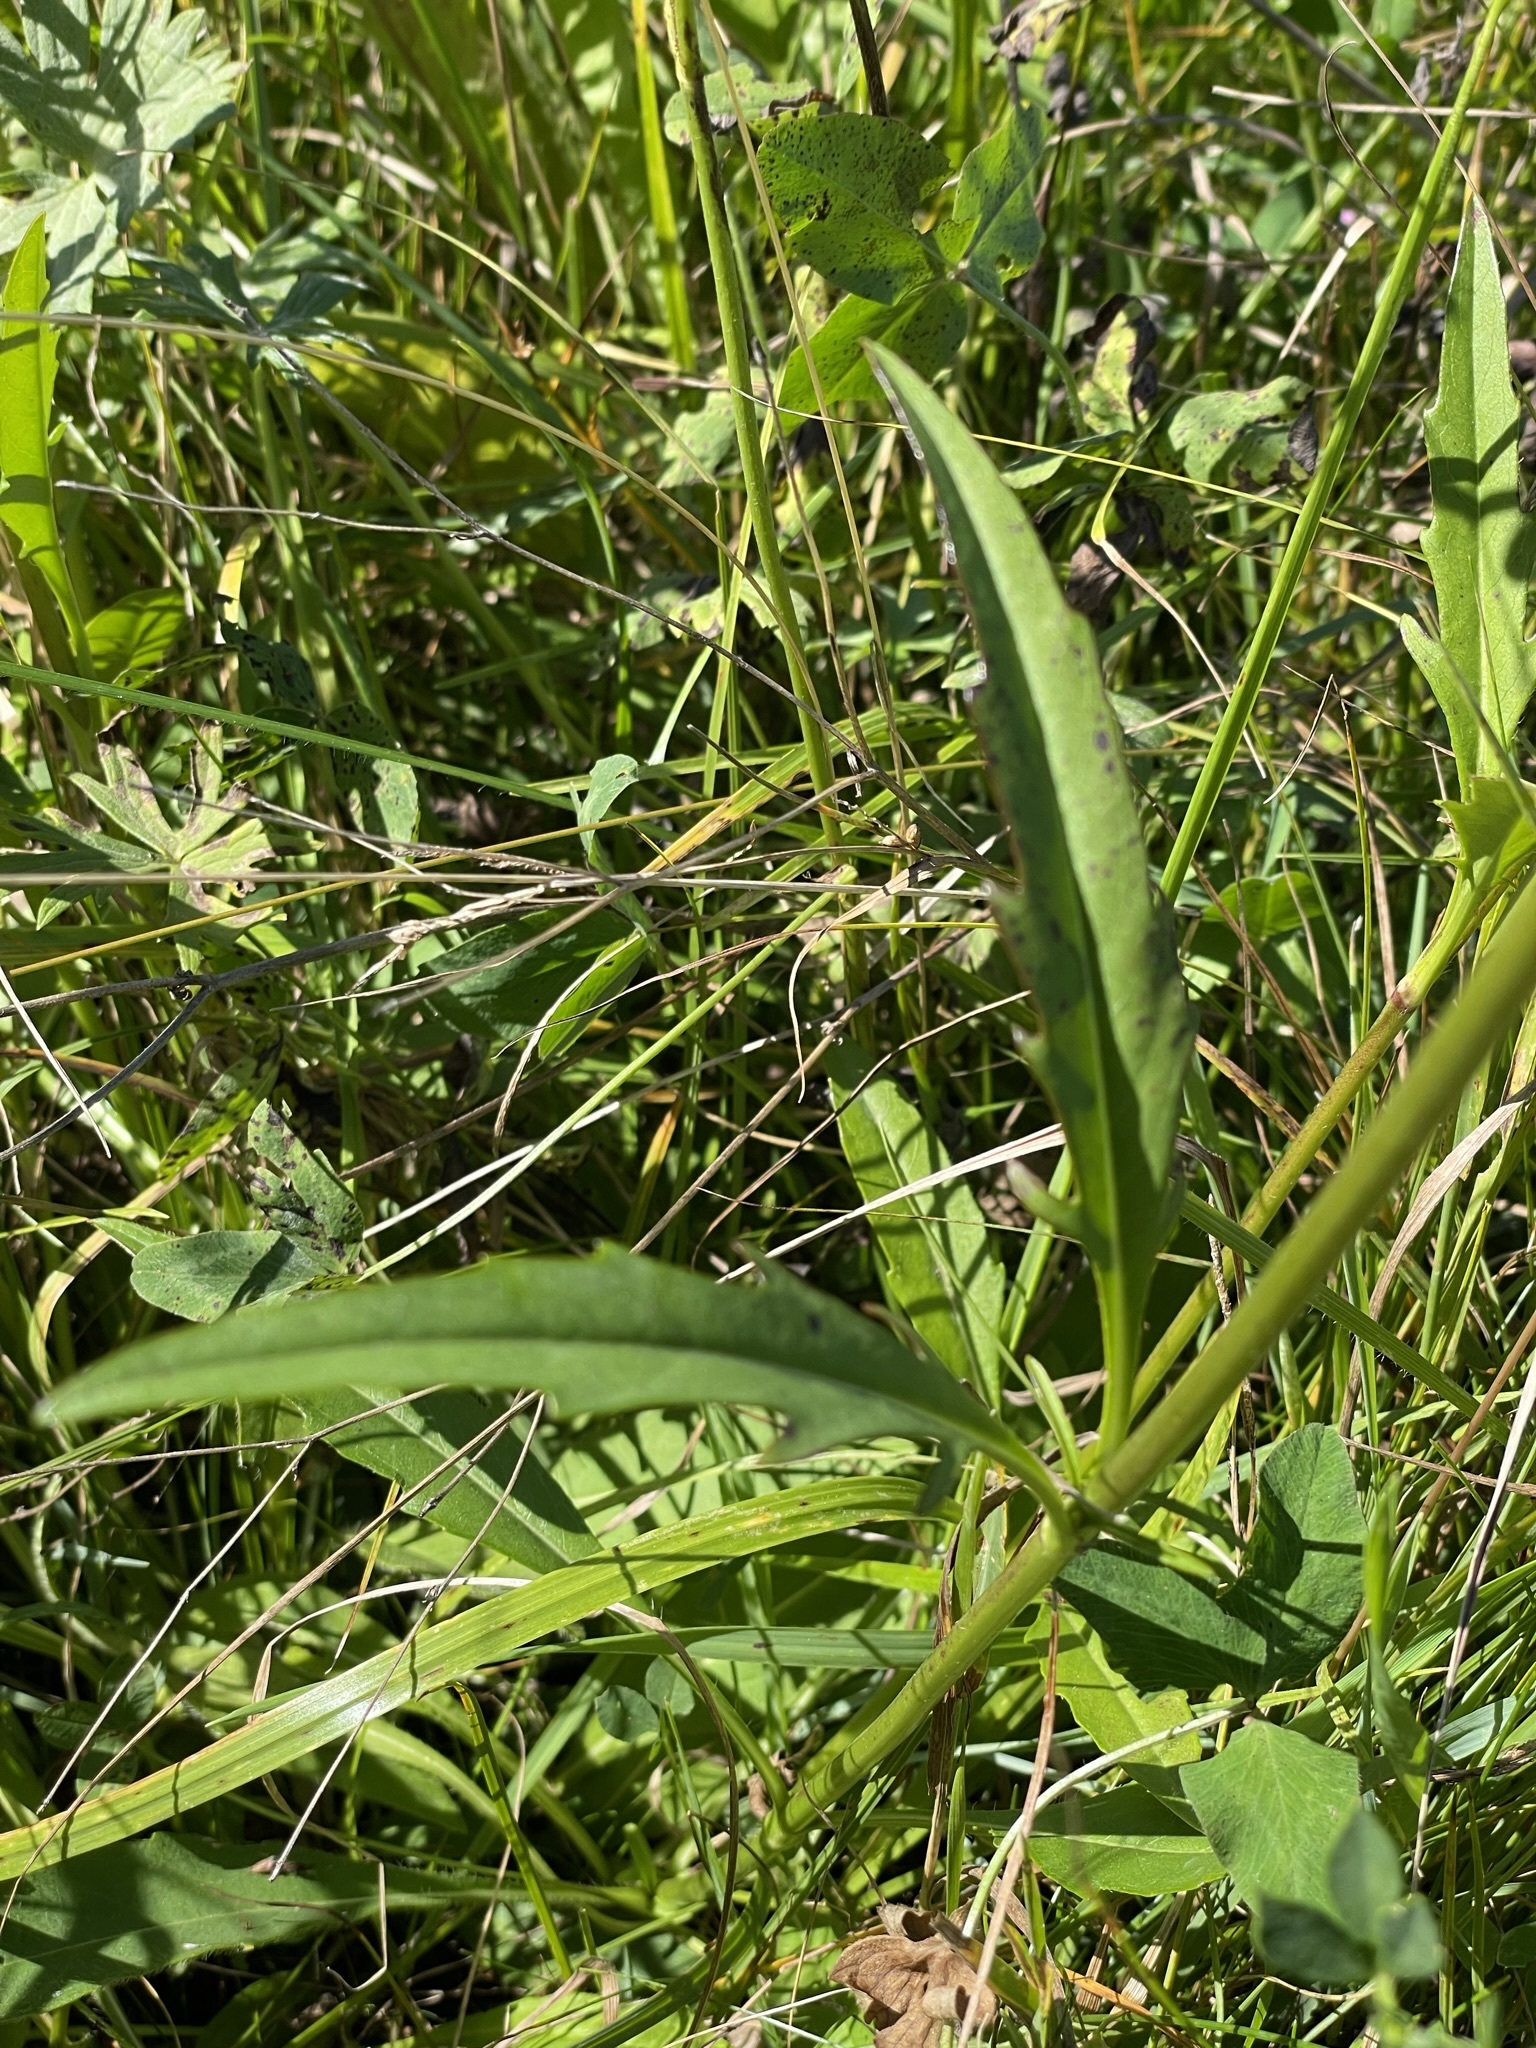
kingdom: Plantae
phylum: Tracheophyta
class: Magnoliopsida
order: Dipsacales
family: Caprifoliaceae
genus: Succisa
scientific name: Succisa pratensis
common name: Devil's-bit
